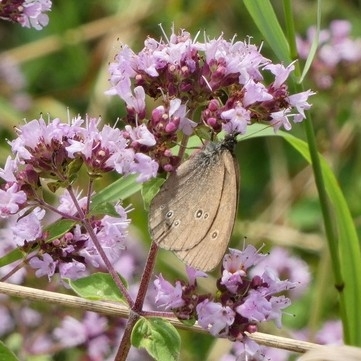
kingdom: Animalia
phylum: Arthropoda
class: Insecta
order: Lepidoptera
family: Nymphalidae
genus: Aphantopus
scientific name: Aphantopus hyperantus
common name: Ringlet
